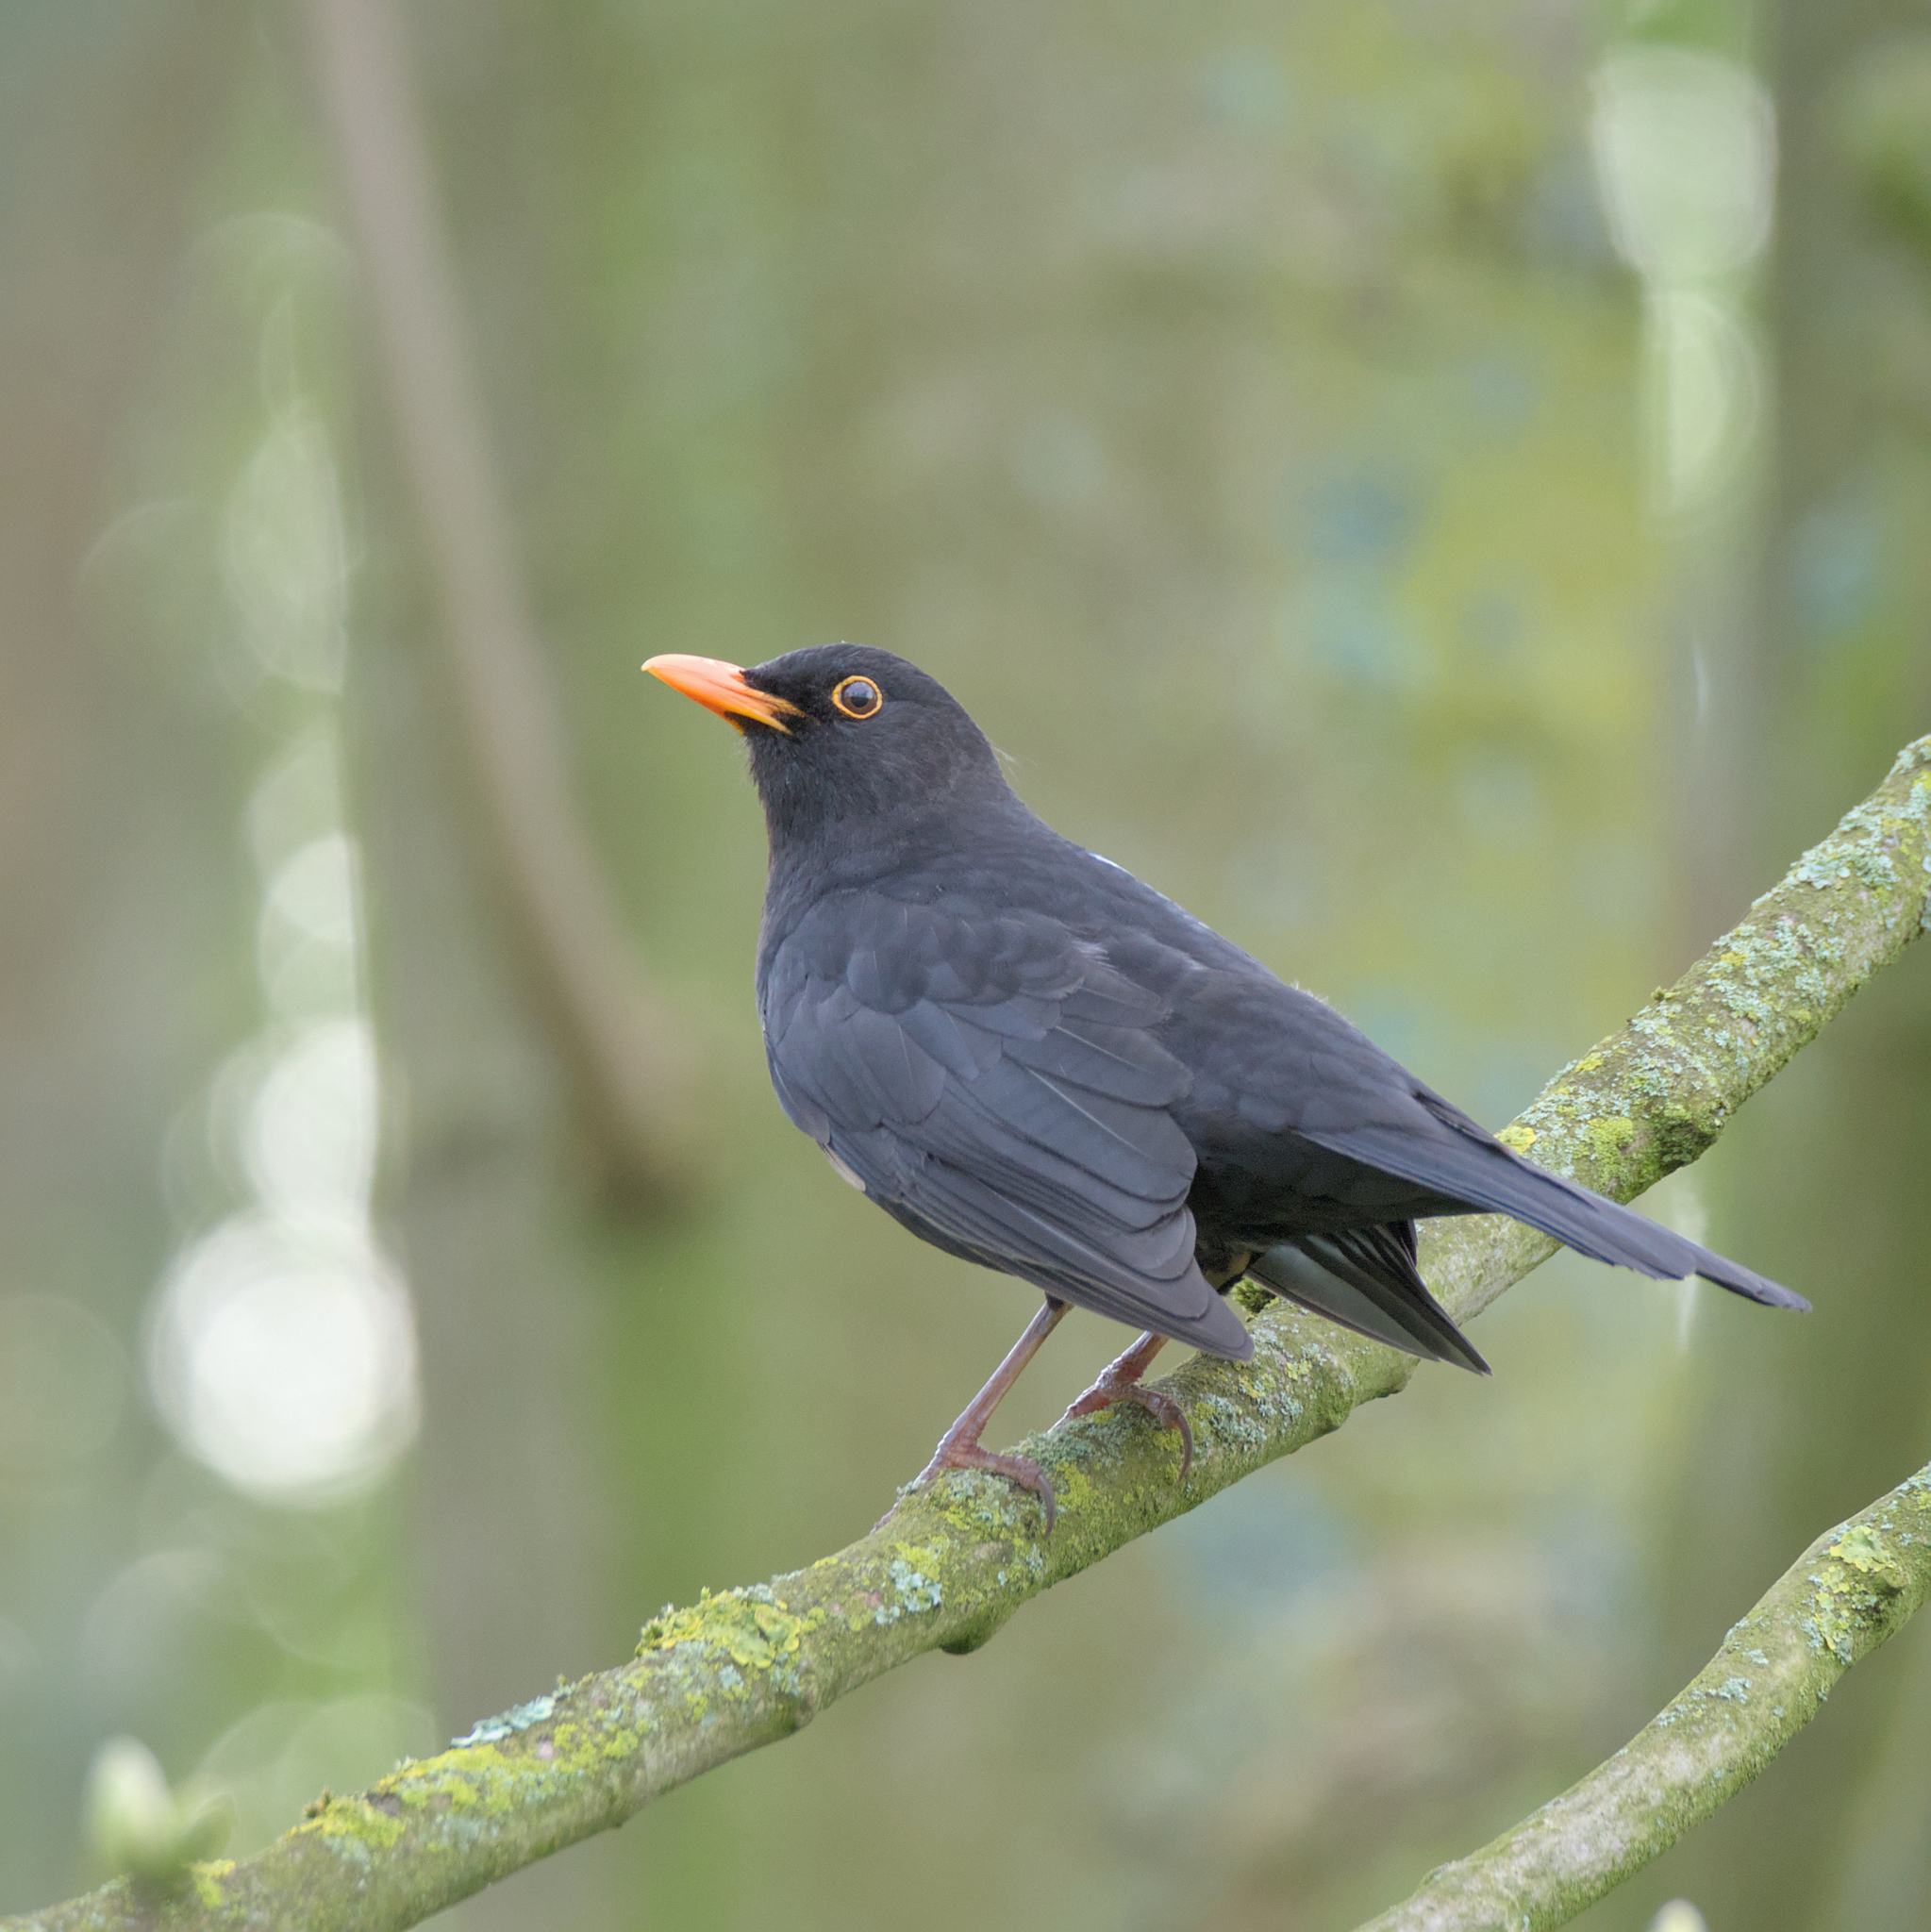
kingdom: Animalia
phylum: Chordata
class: Aves
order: Passeriformes
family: Turdidae
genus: Turdus
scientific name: Turdus merula
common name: Common blackbird
